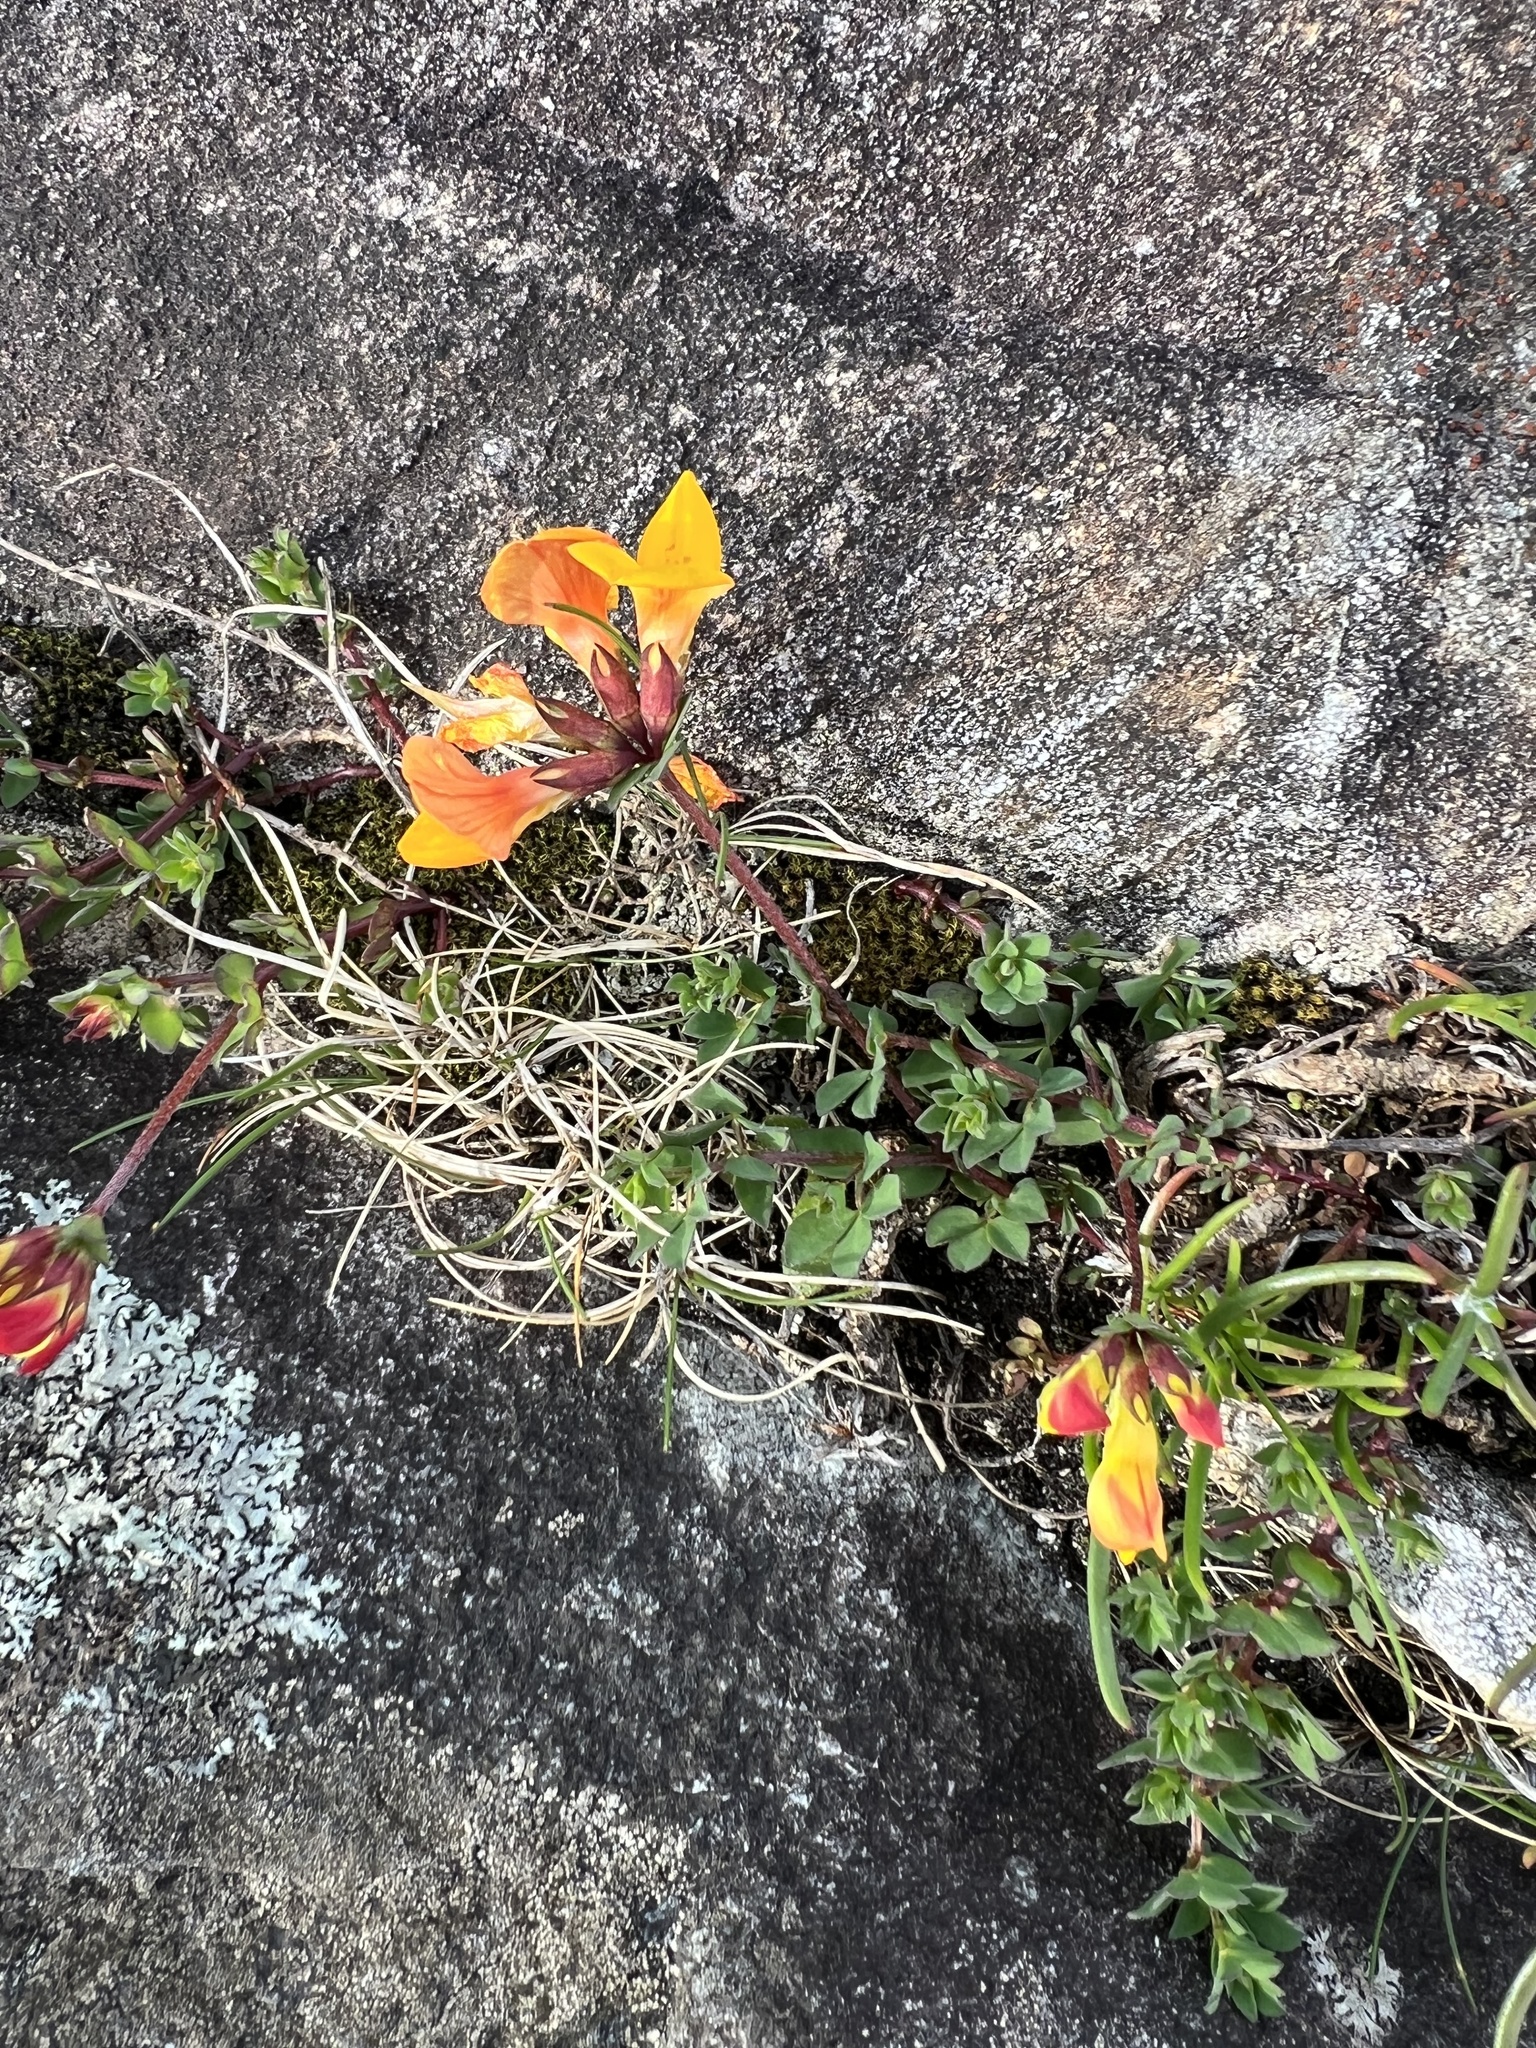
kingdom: Plantae
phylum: Tracheophyta
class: Magnoliopsida
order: Fabales
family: Fabaceae
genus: Lotus
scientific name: Lotus corniculatus
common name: Common bird's-foot-trefoil
